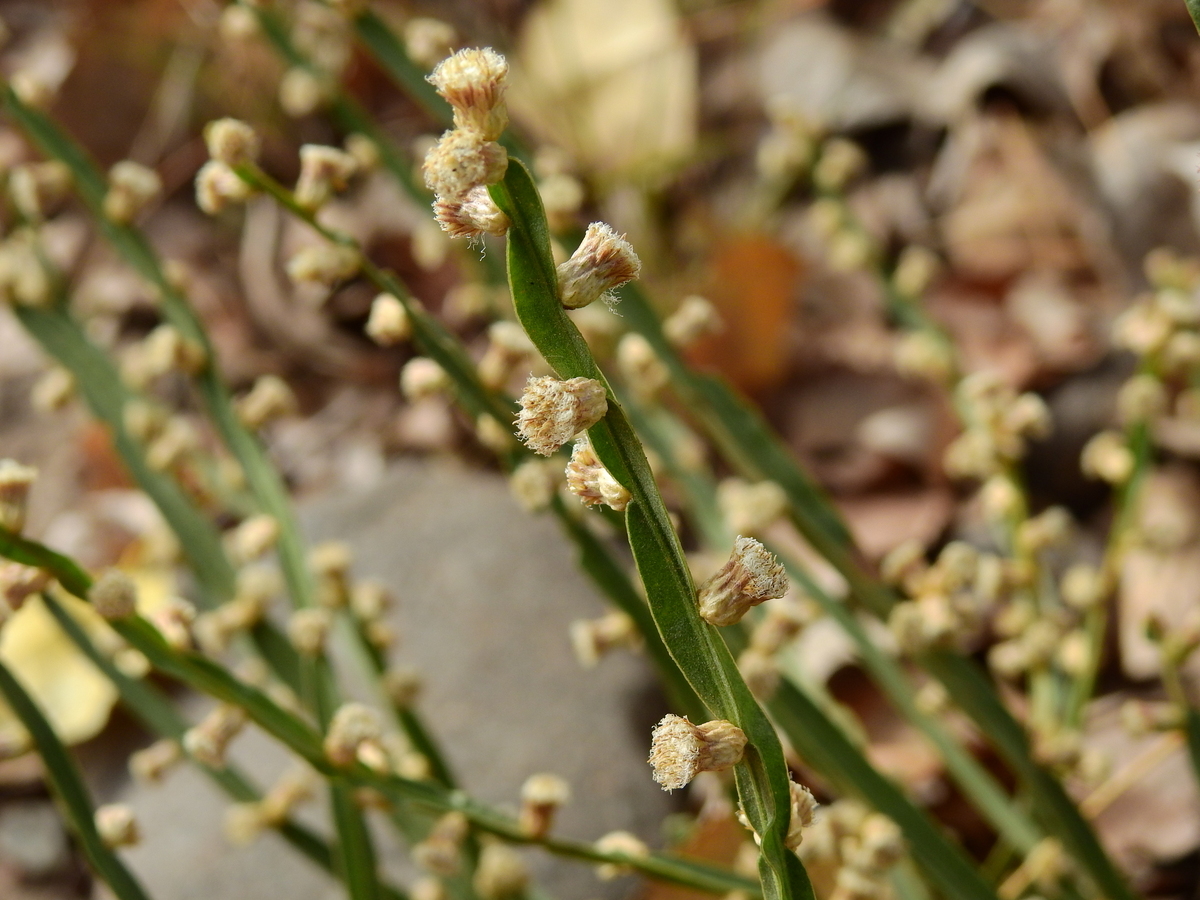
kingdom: Plantae
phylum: Tracheophyta
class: Magnoliopsida
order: Asterales
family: Asteraceae
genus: Baccharis
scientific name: Baccharis trimera
